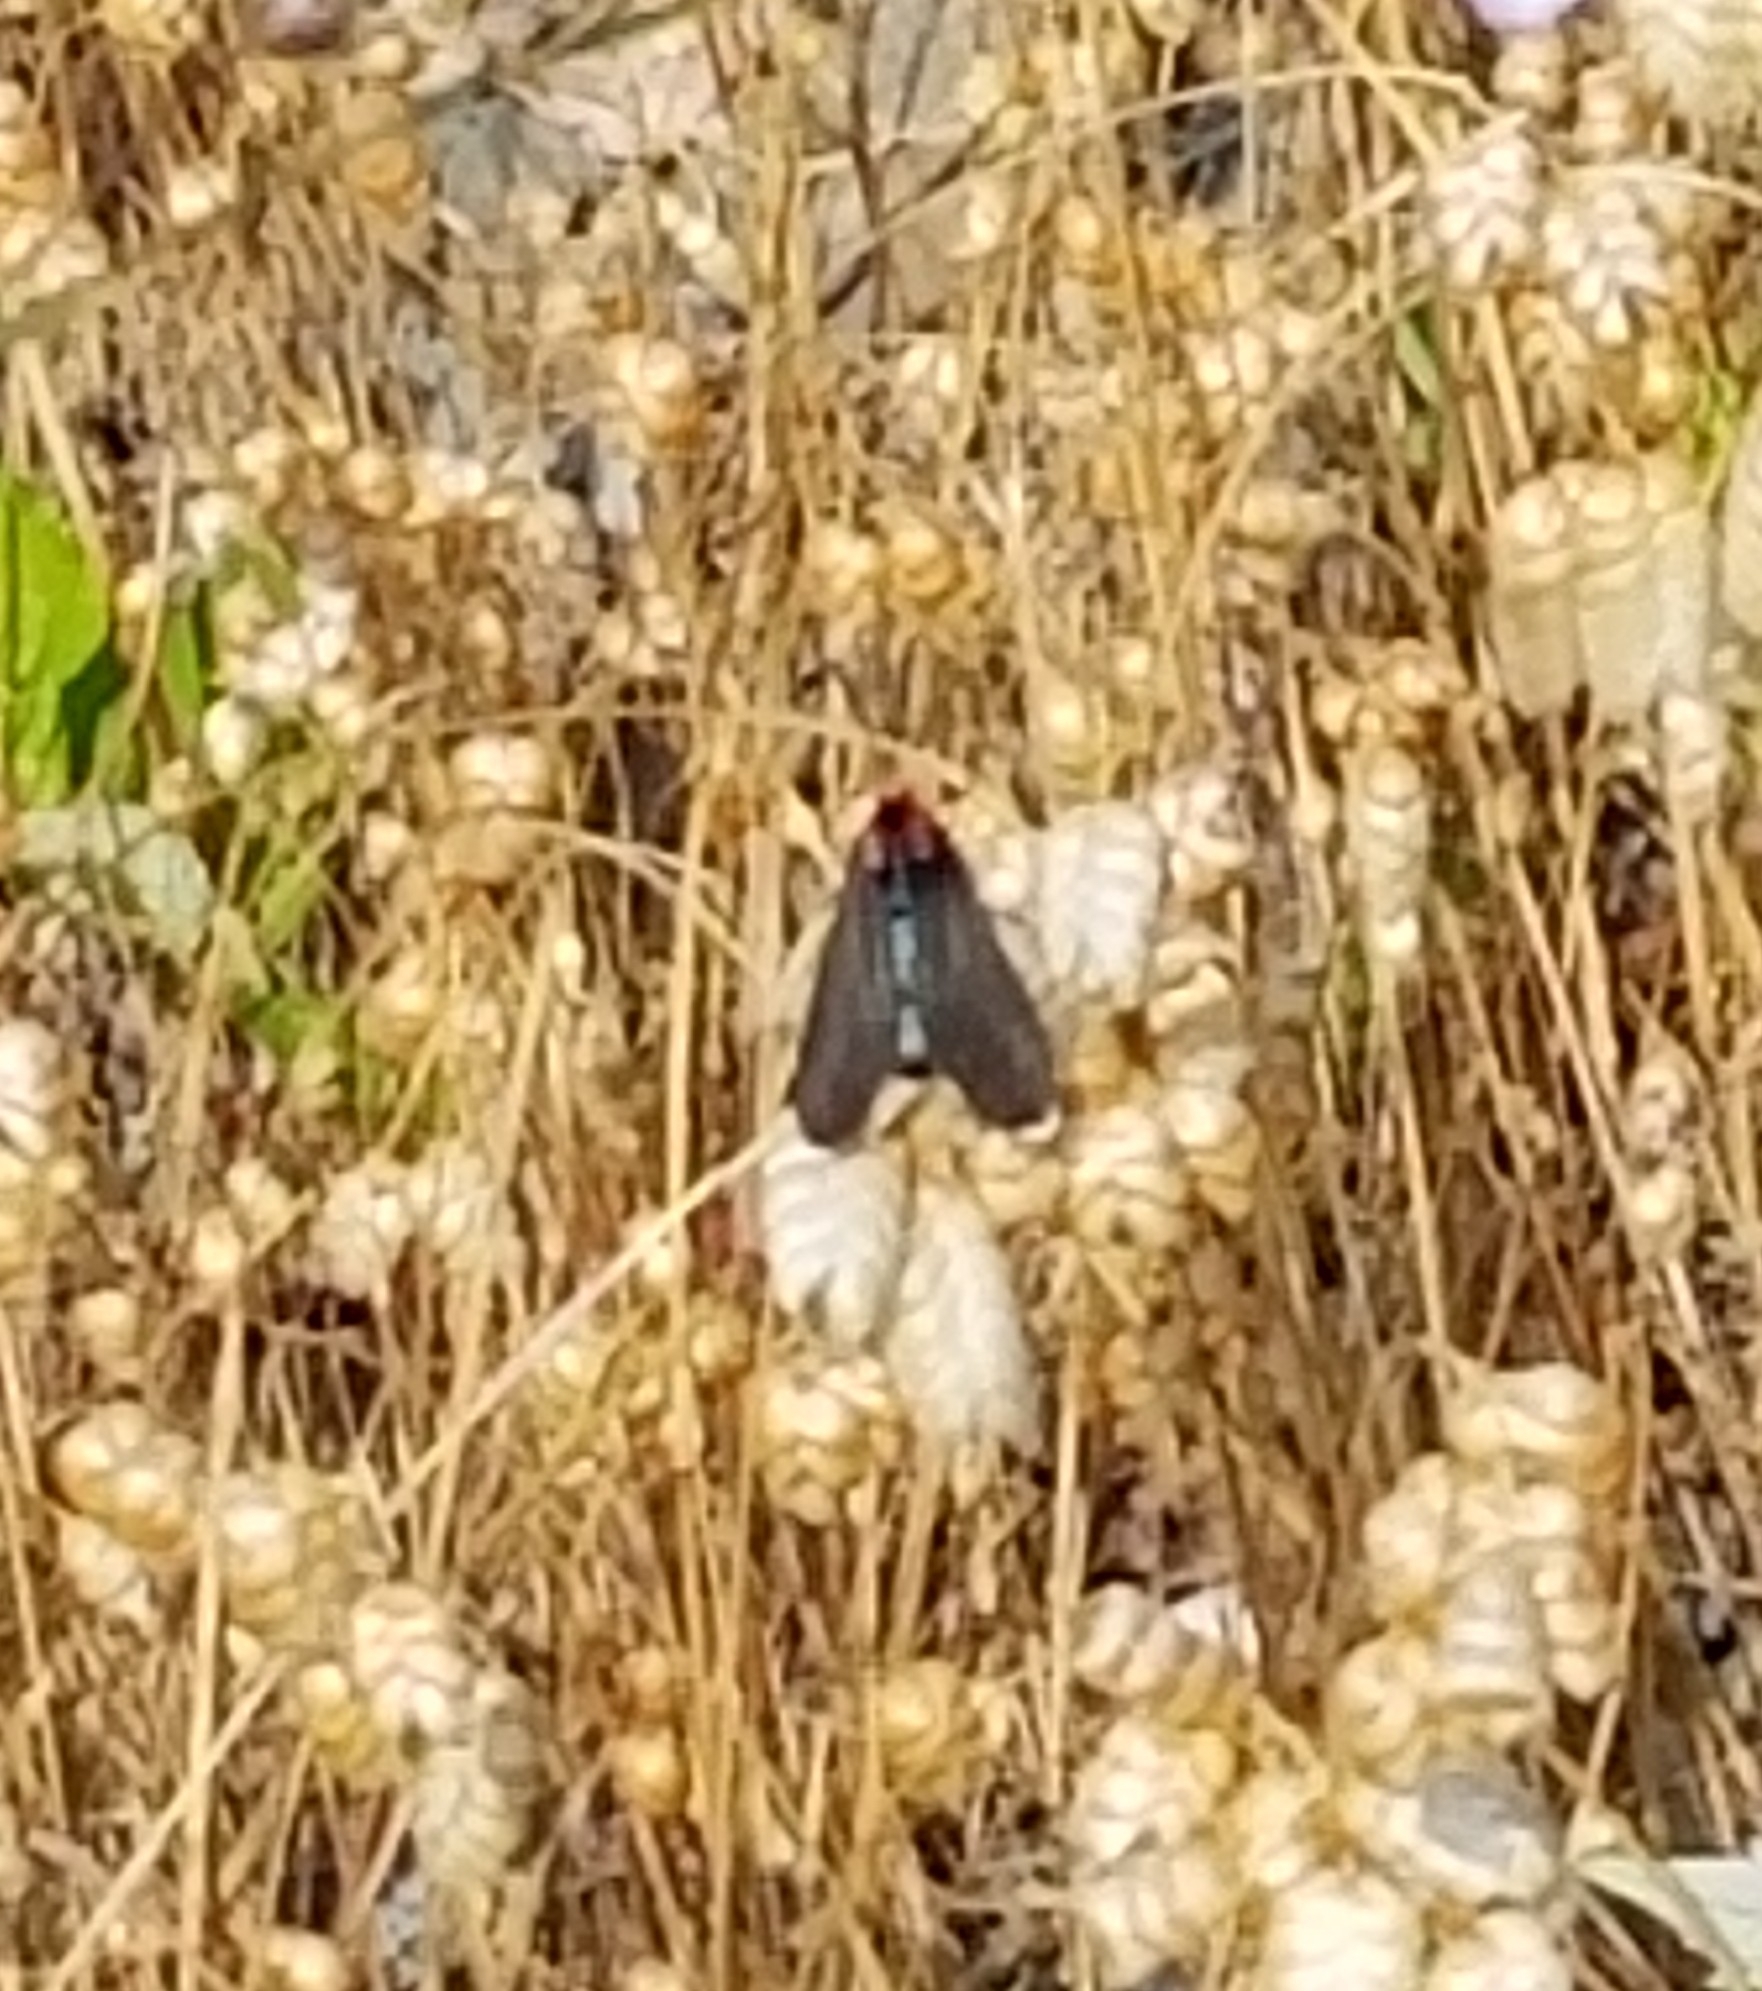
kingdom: Animalia
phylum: Arthropoda
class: Insecta
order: Lepidoptera
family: Erebidae
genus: Ctenucha
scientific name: Ctenucha rubroscapus
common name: Red-shouldered ctenucha
